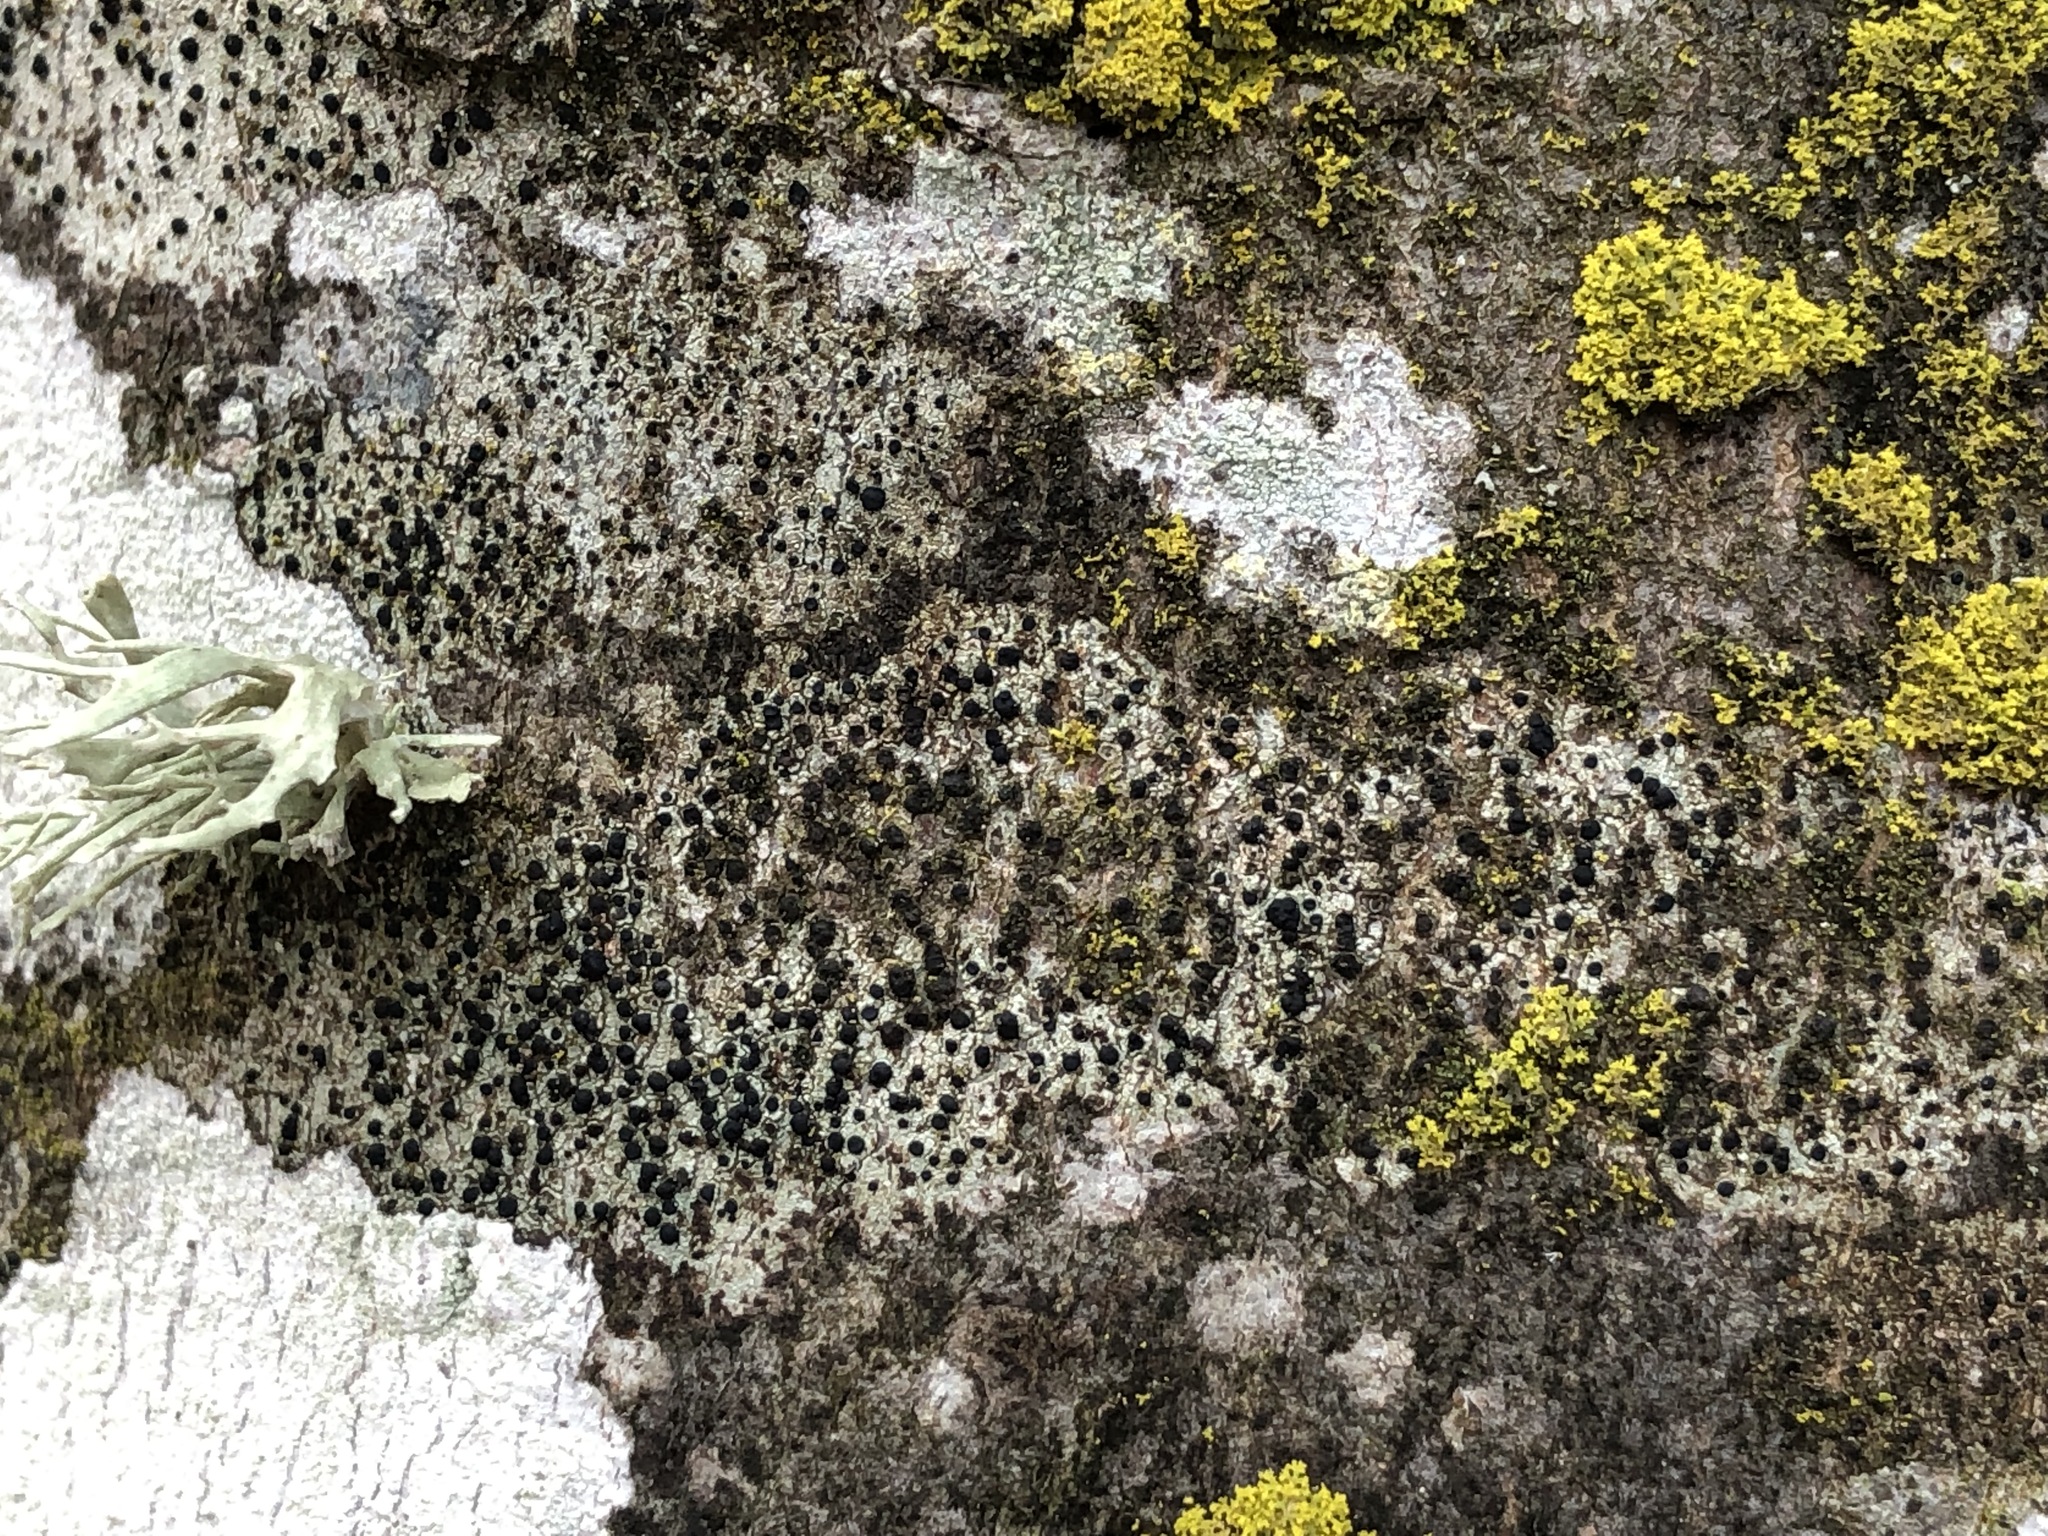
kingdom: Fungi
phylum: Ascomycota
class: Lecanoromycetes
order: Lecanorales
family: Lecanoraceae
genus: Lecidella
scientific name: Lecidella elaeochroma
